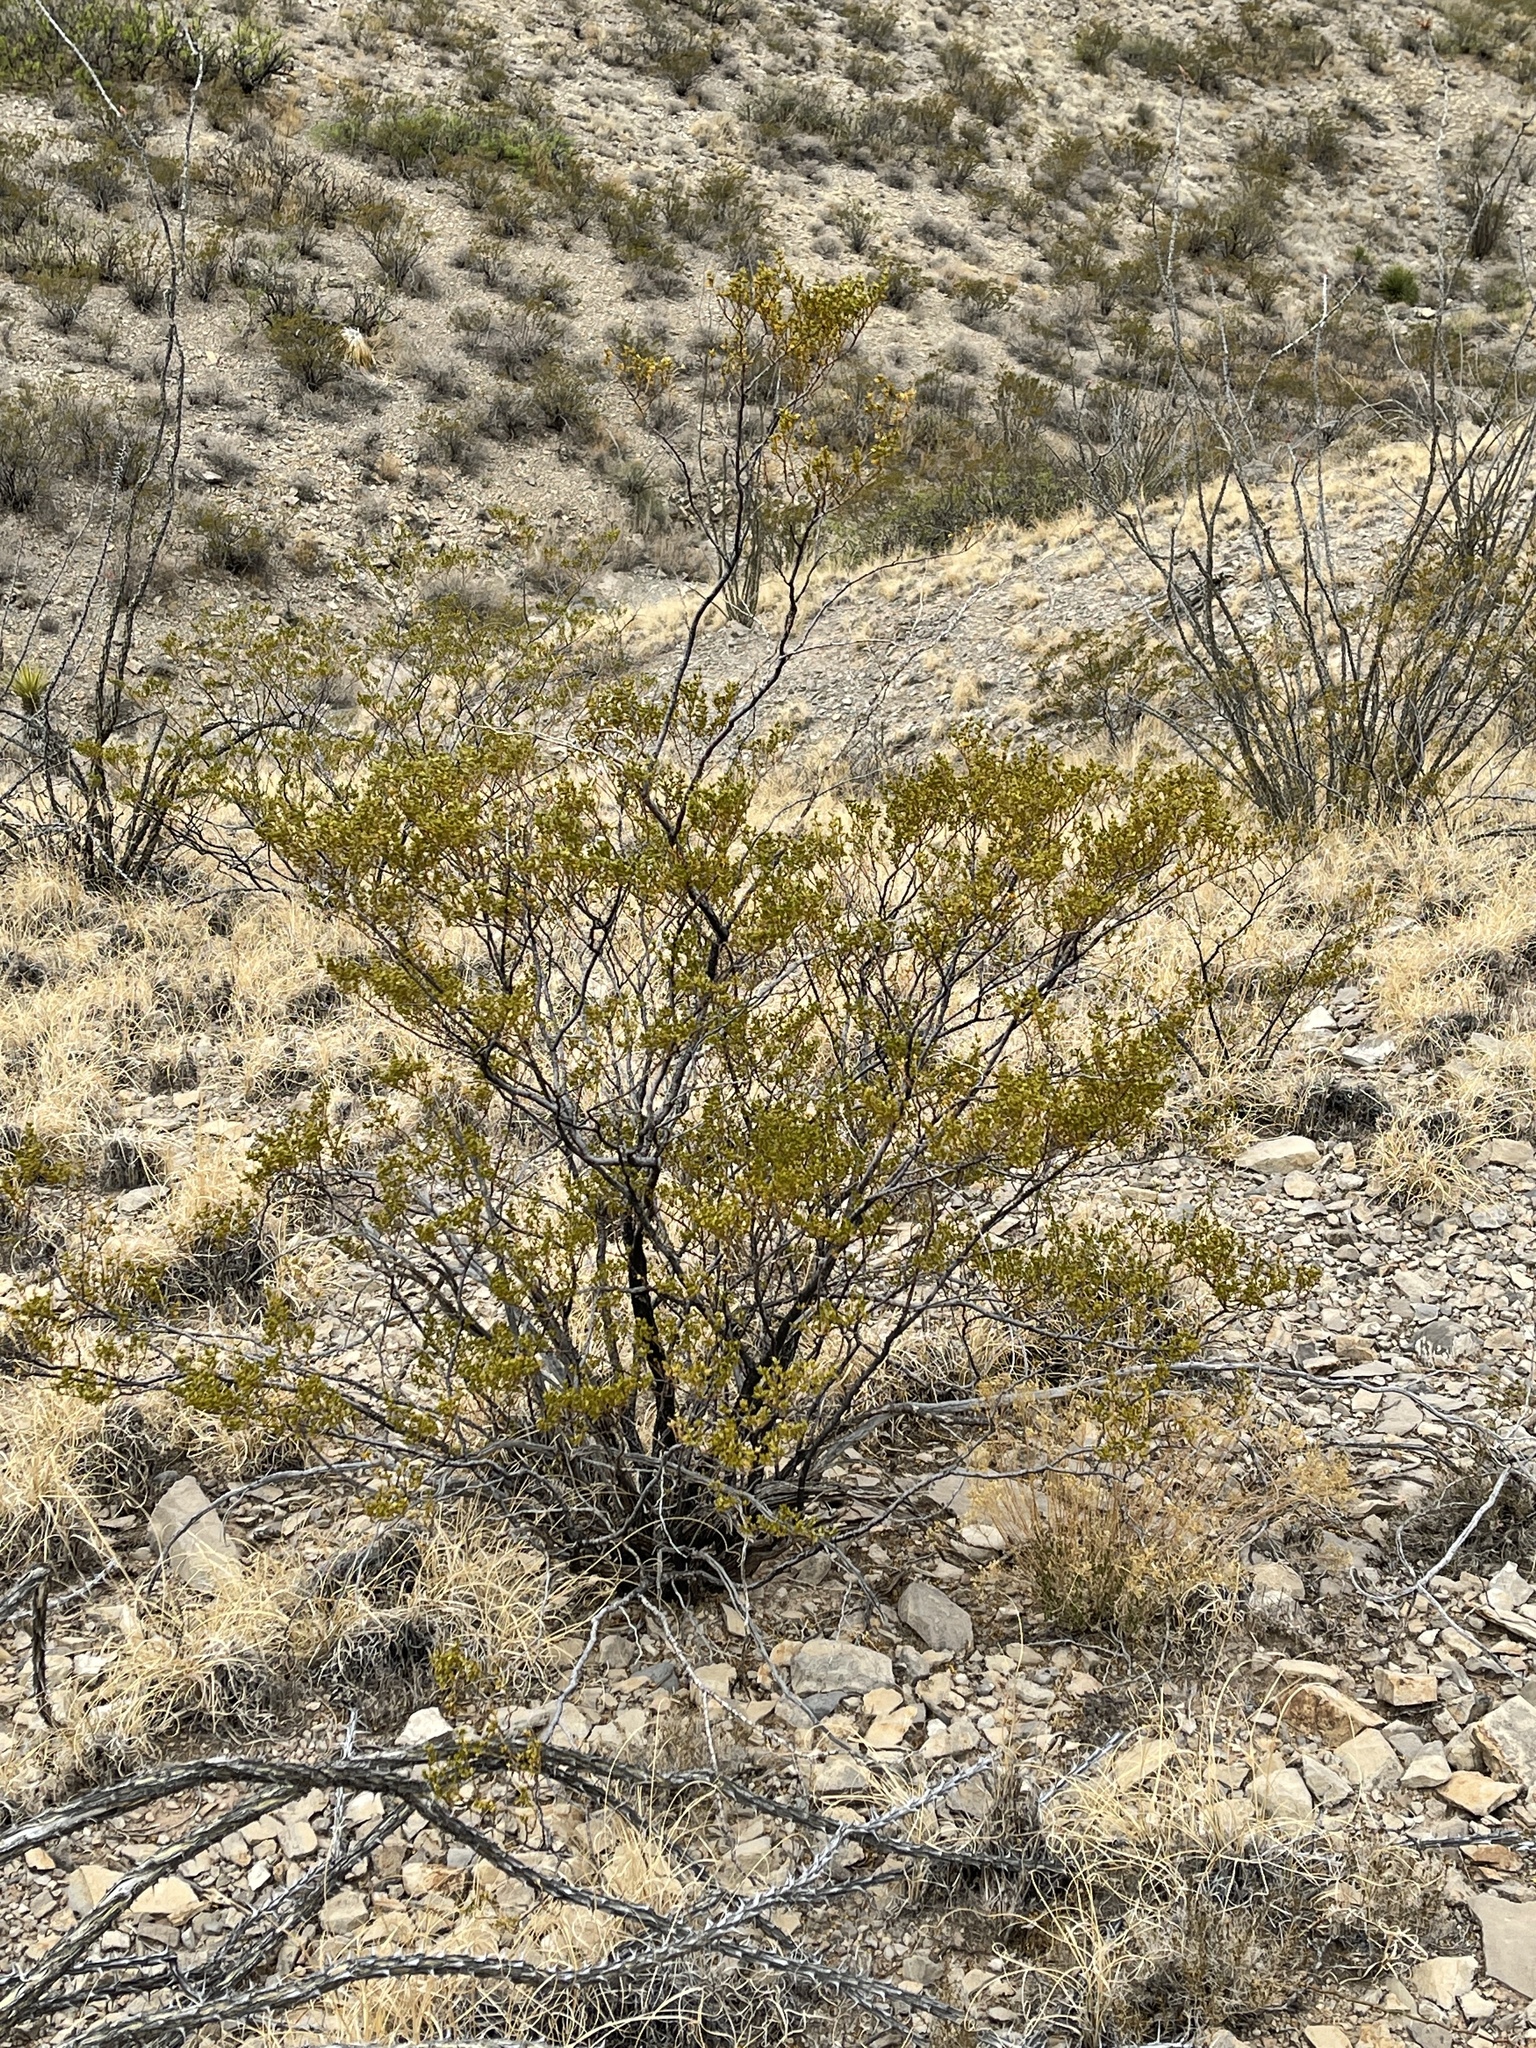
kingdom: Plantae
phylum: Tracheophyta
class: Magnoliopsida
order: Zygophyllales
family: Zygophyllaceae
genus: Larrea
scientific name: Larrea tridentata
